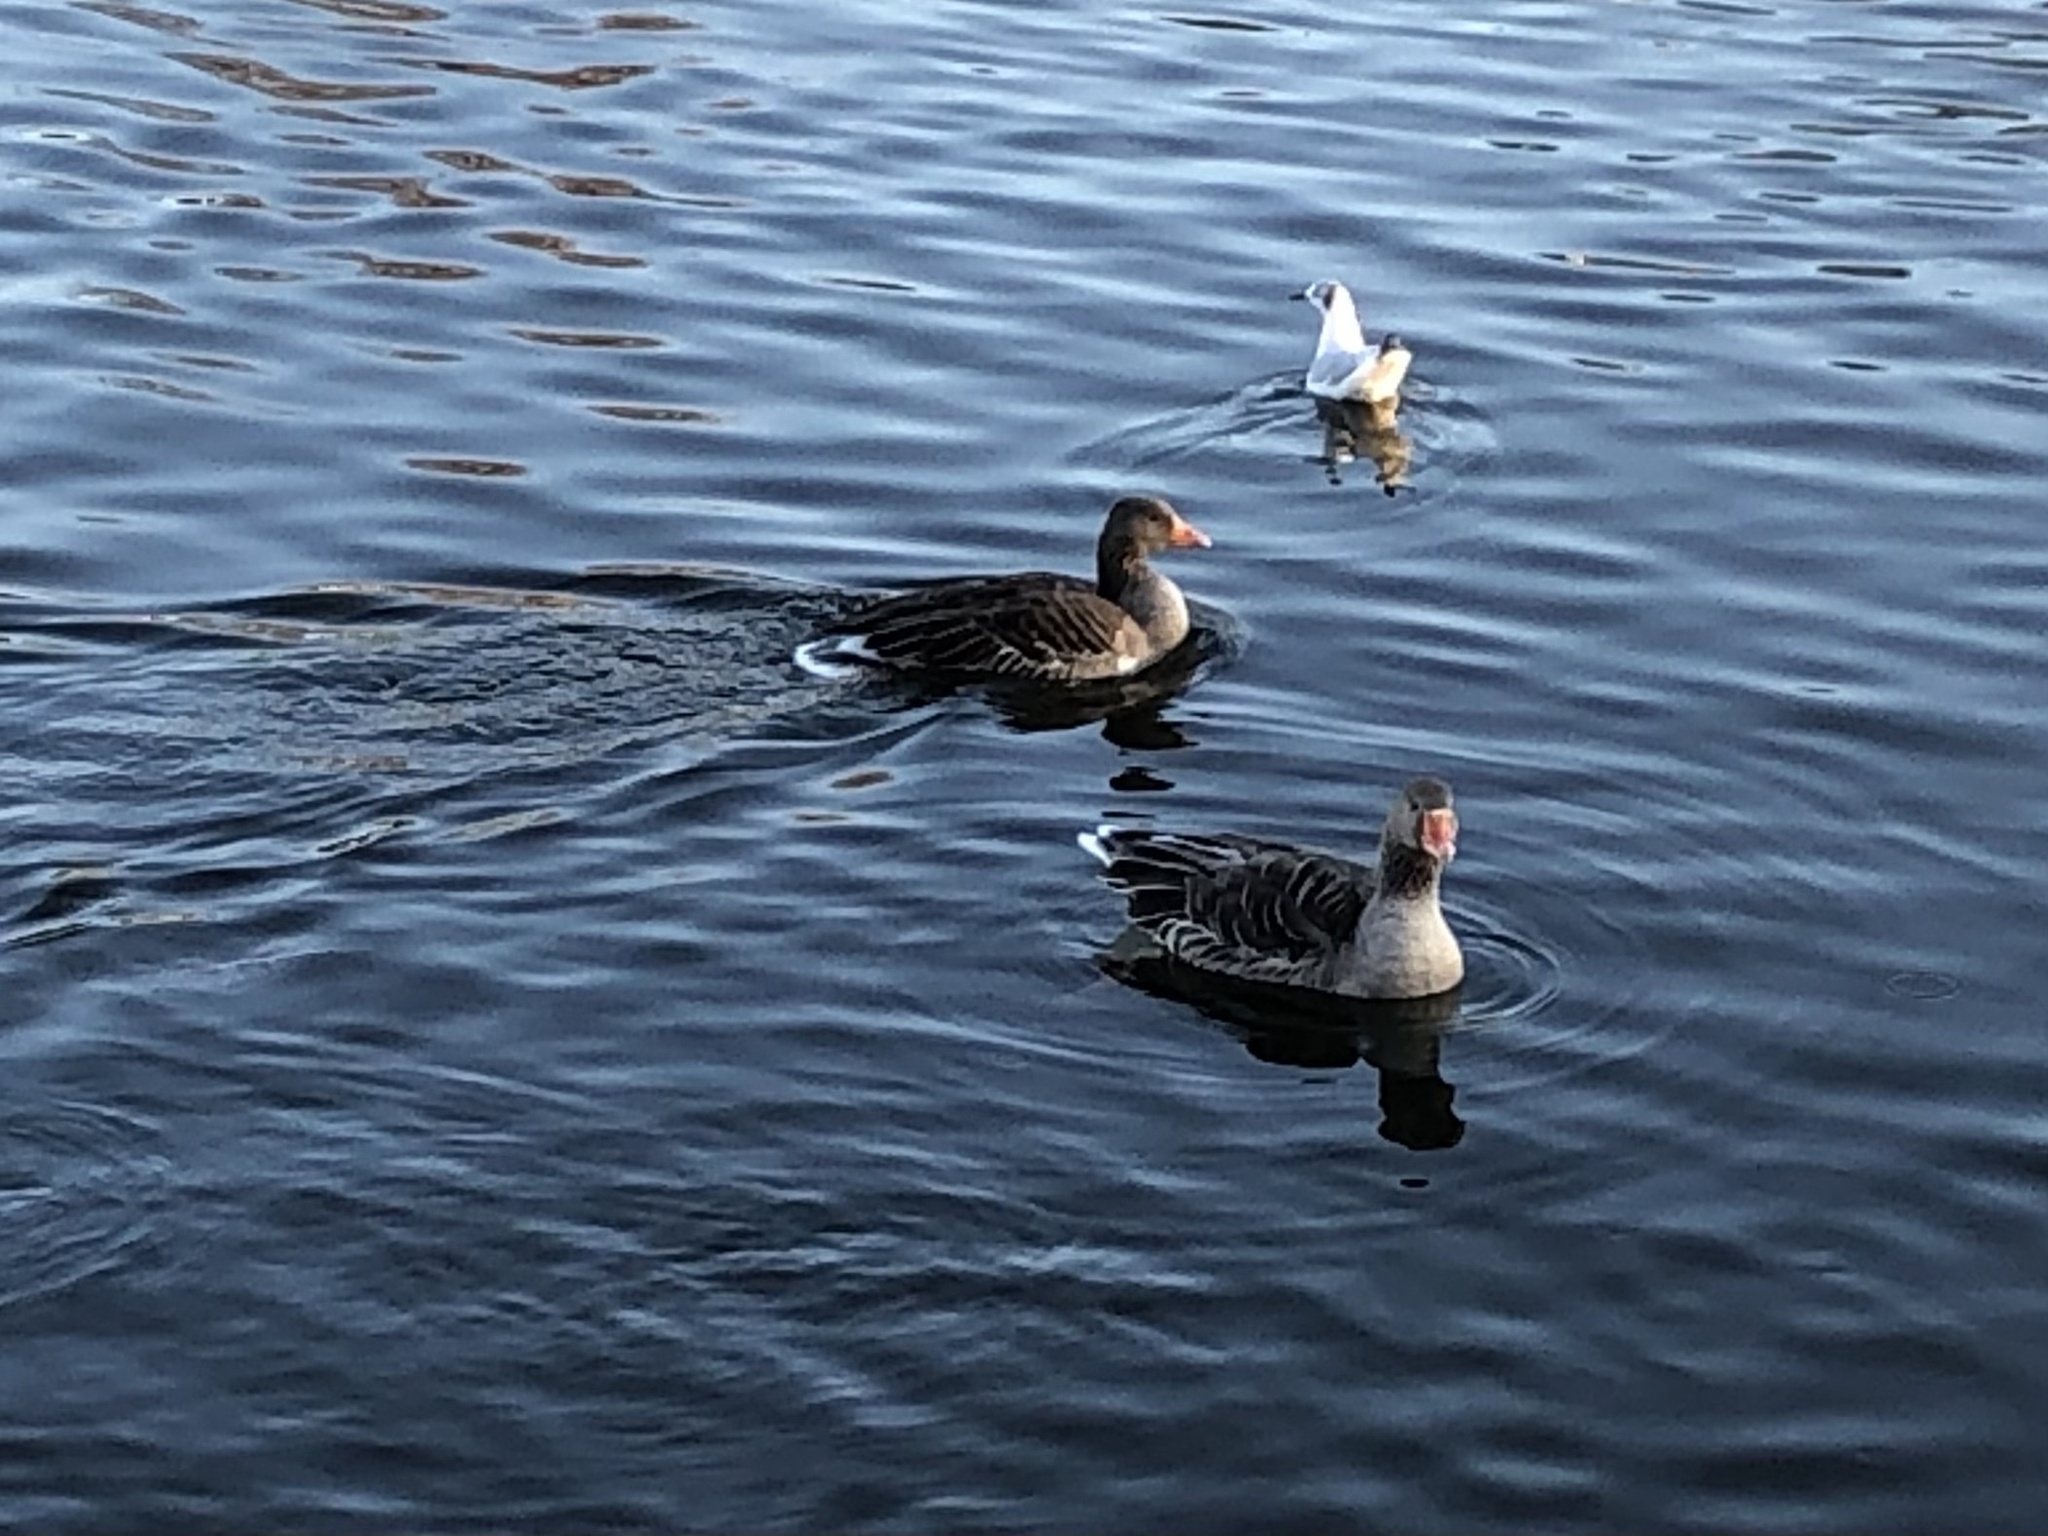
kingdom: Animalia
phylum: Chordata
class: Aves
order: Anseriformes
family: Anatidae
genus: Anser
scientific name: Anser anser
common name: Greylag goose
